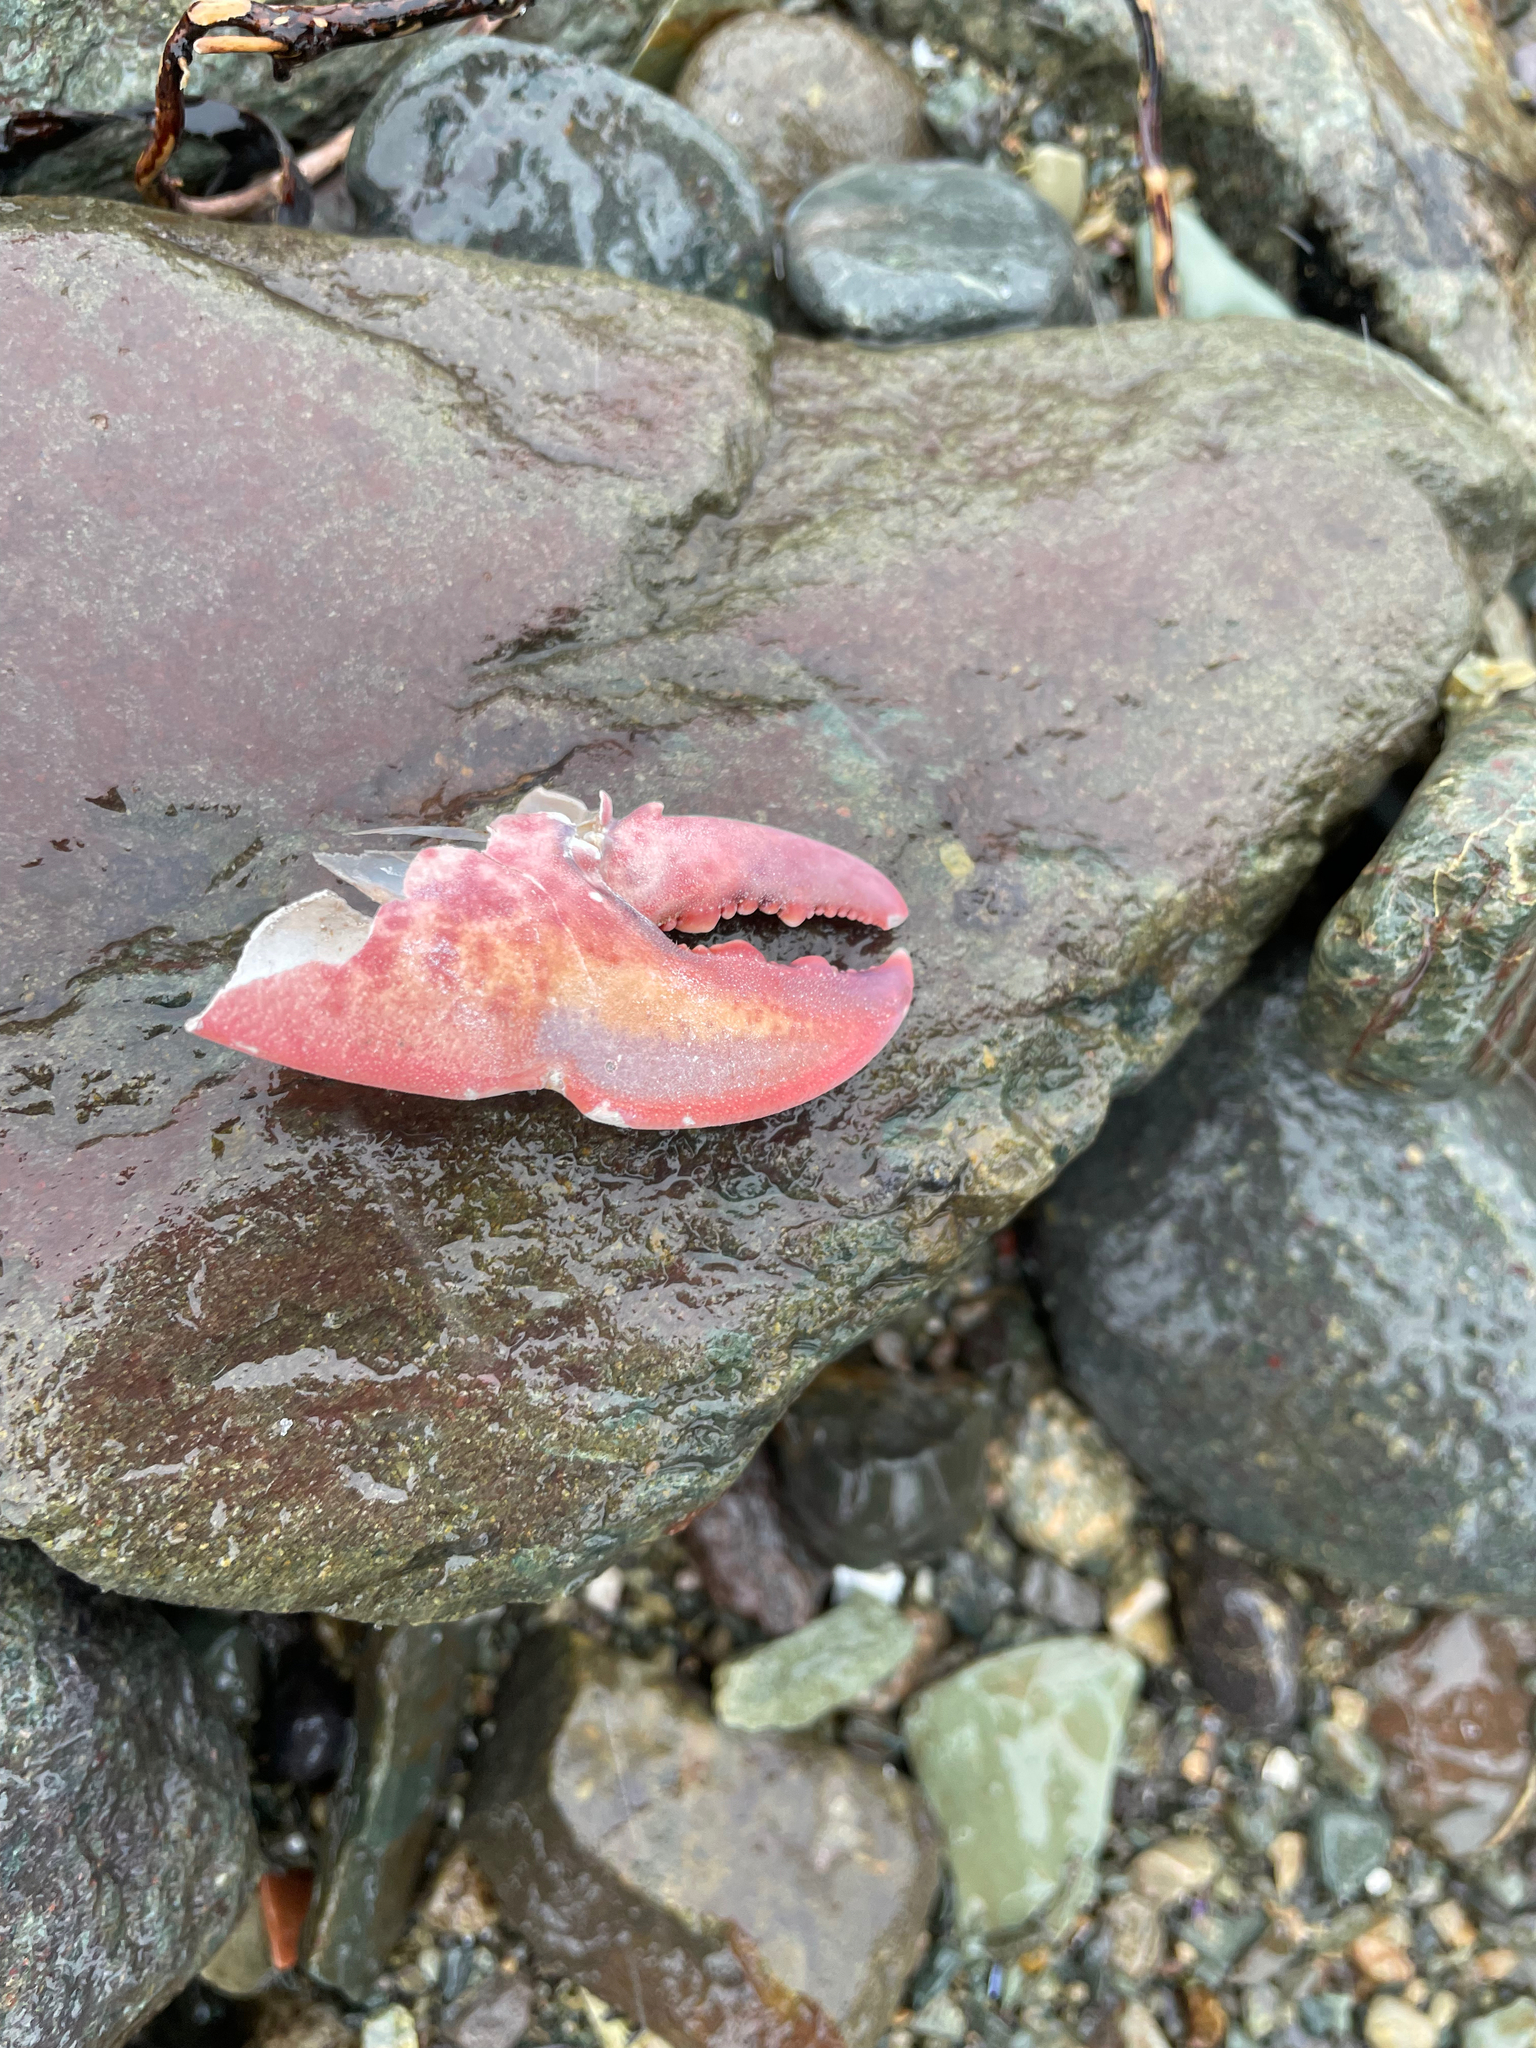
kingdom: Animalia
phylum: Arthropoda
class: Malacostraca
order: Decapoda
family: Nephropidae
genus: Homarus
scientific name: Homarus americanus
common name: American lobster
